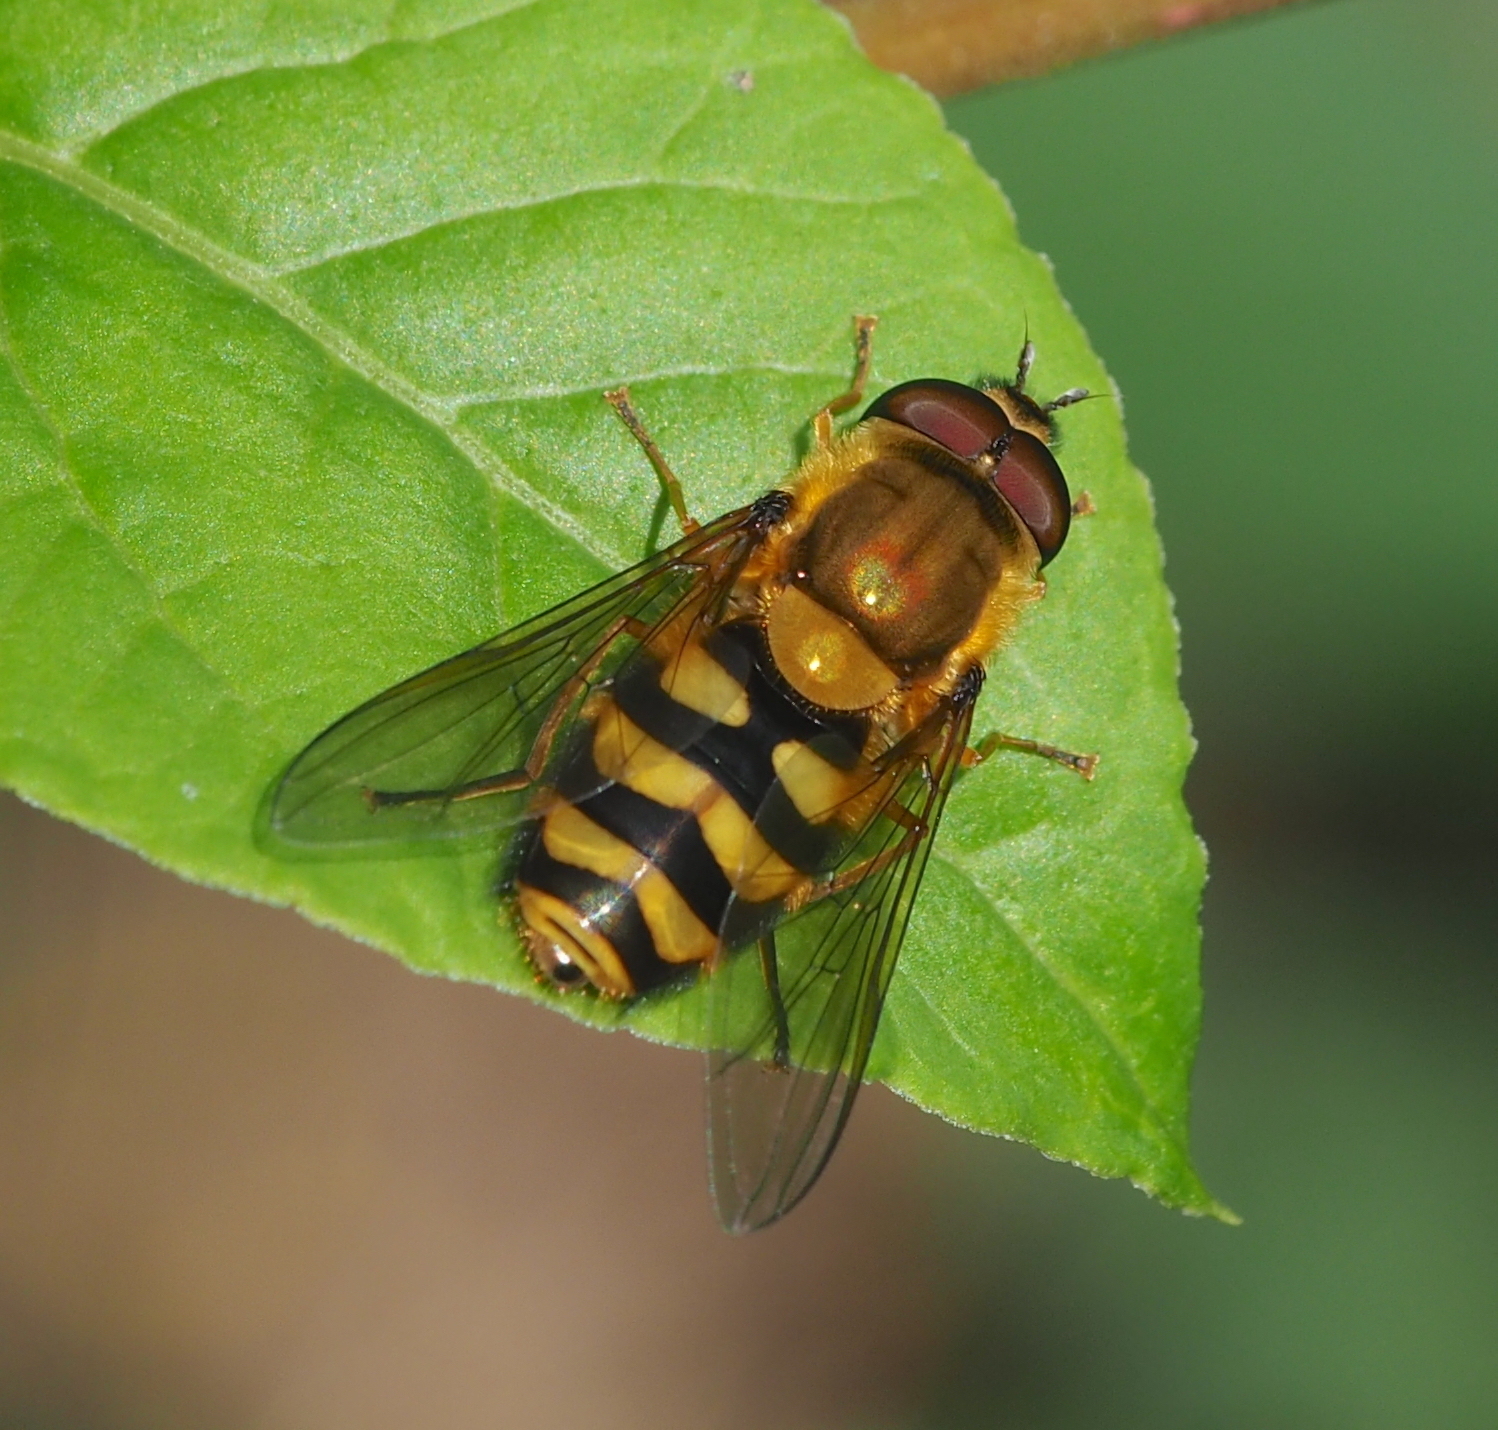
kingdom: Animalia
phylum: Arthropoda
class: Insecta
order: Diptera
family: Syrphidae
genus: Syrphus
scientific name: Syrphus
